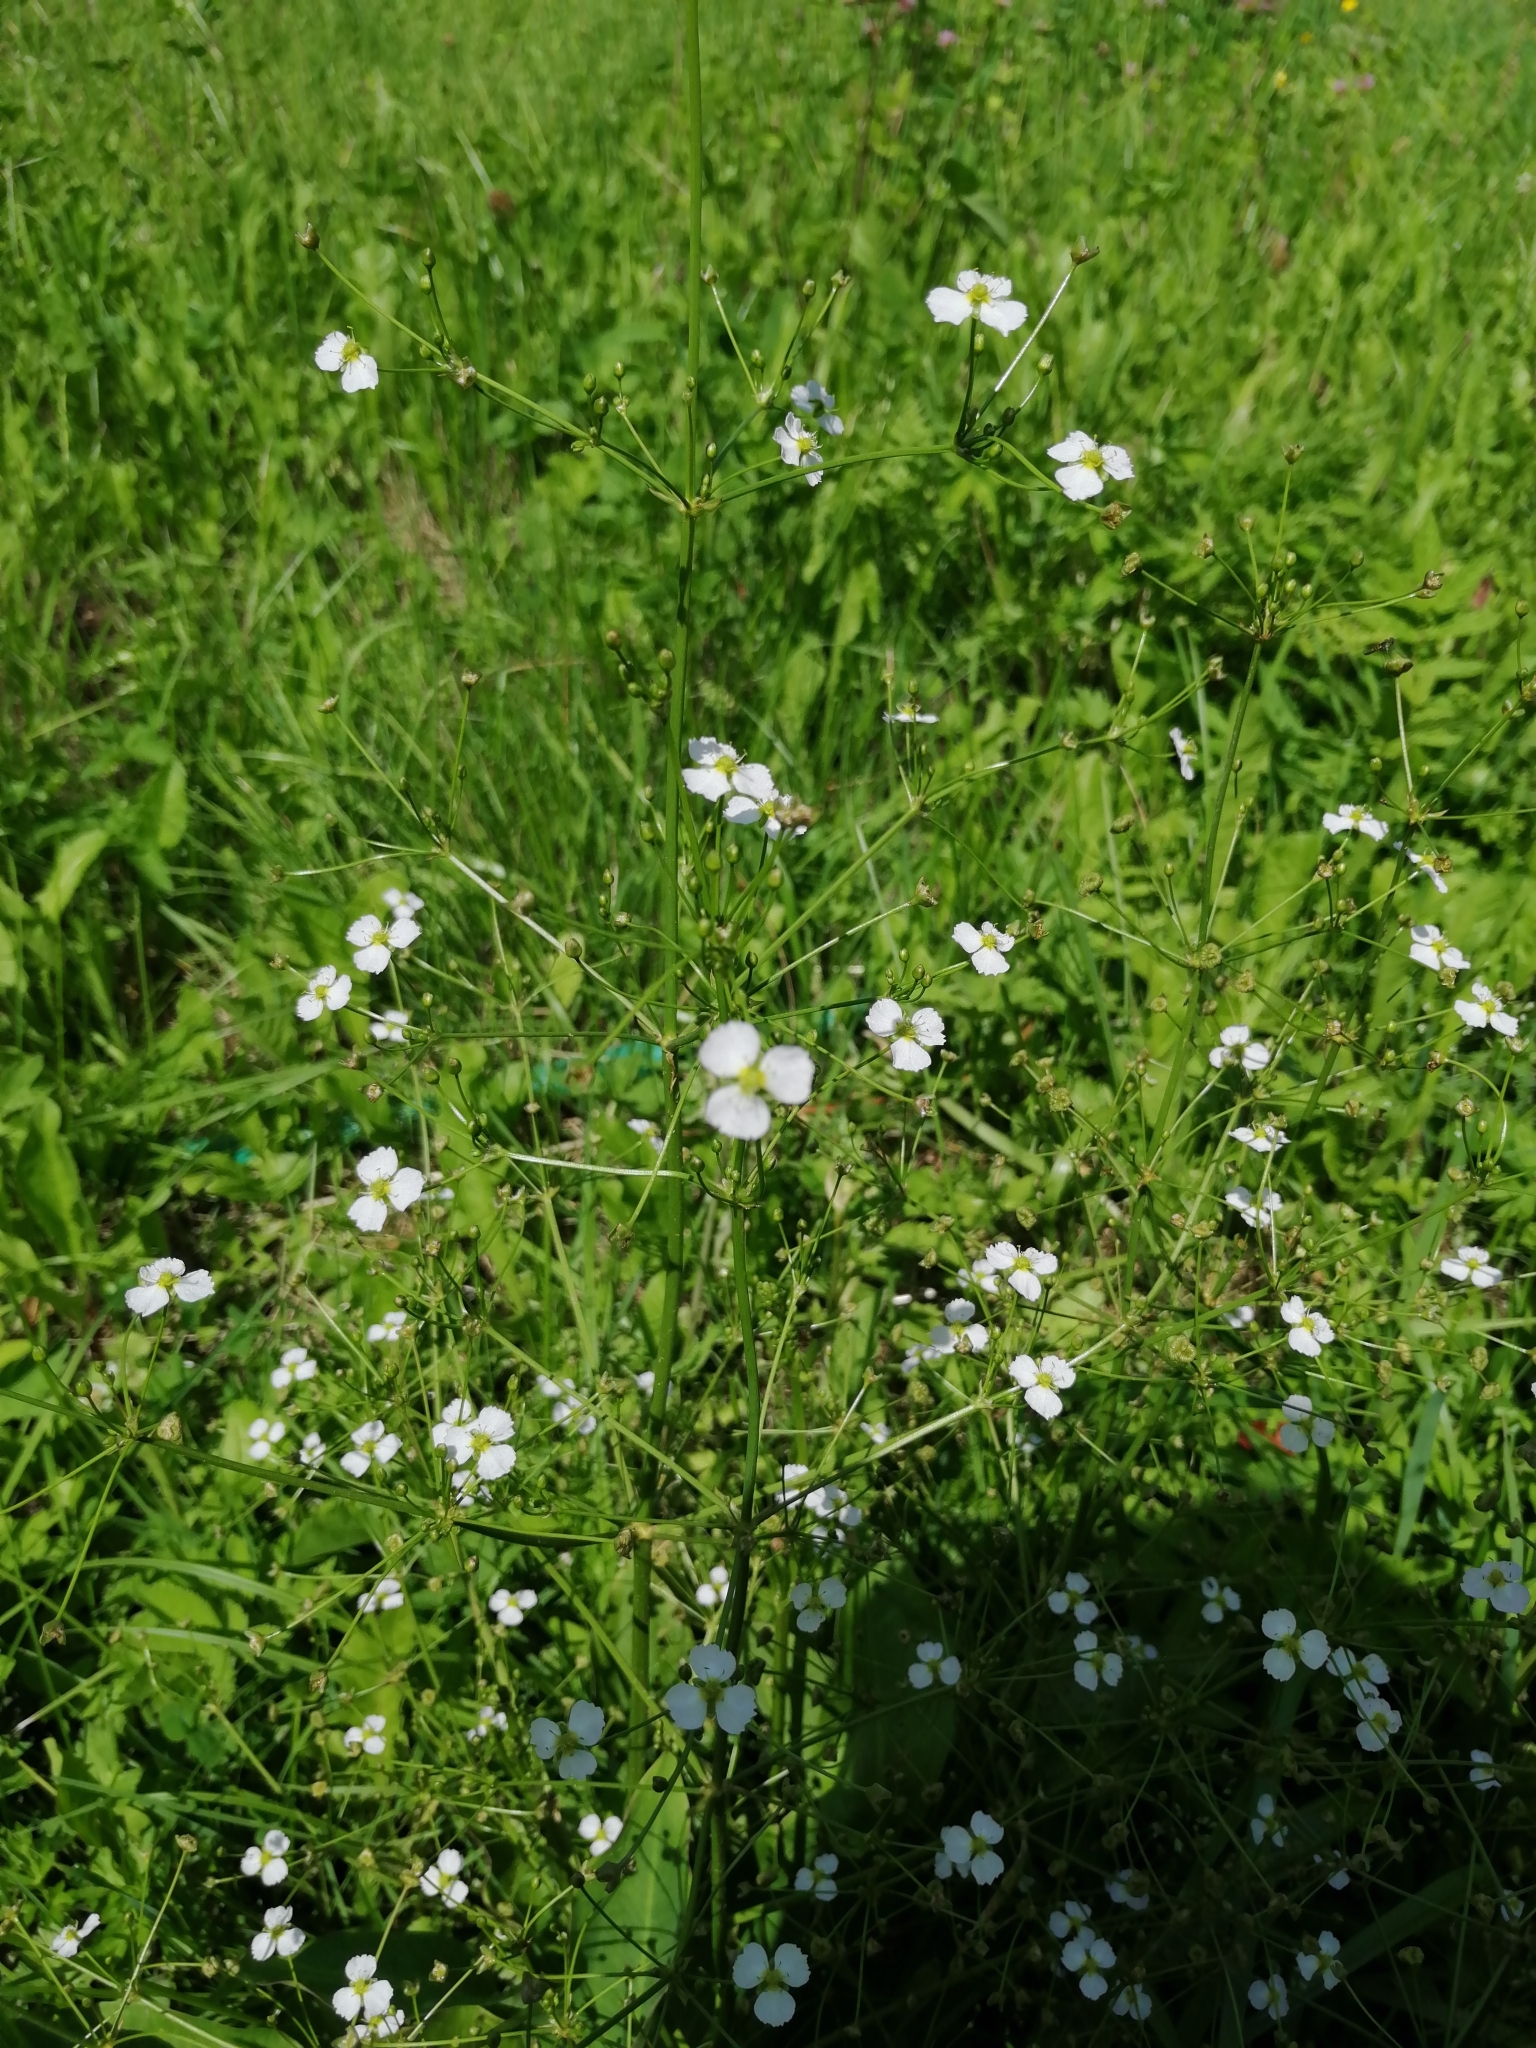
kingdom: Plantae
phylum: Tracheophyta
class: Liliopsida
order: Alismatales
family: Alismataceae
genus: Alisma
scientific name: Alisma plantago-aquatica
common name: Water-plantain
